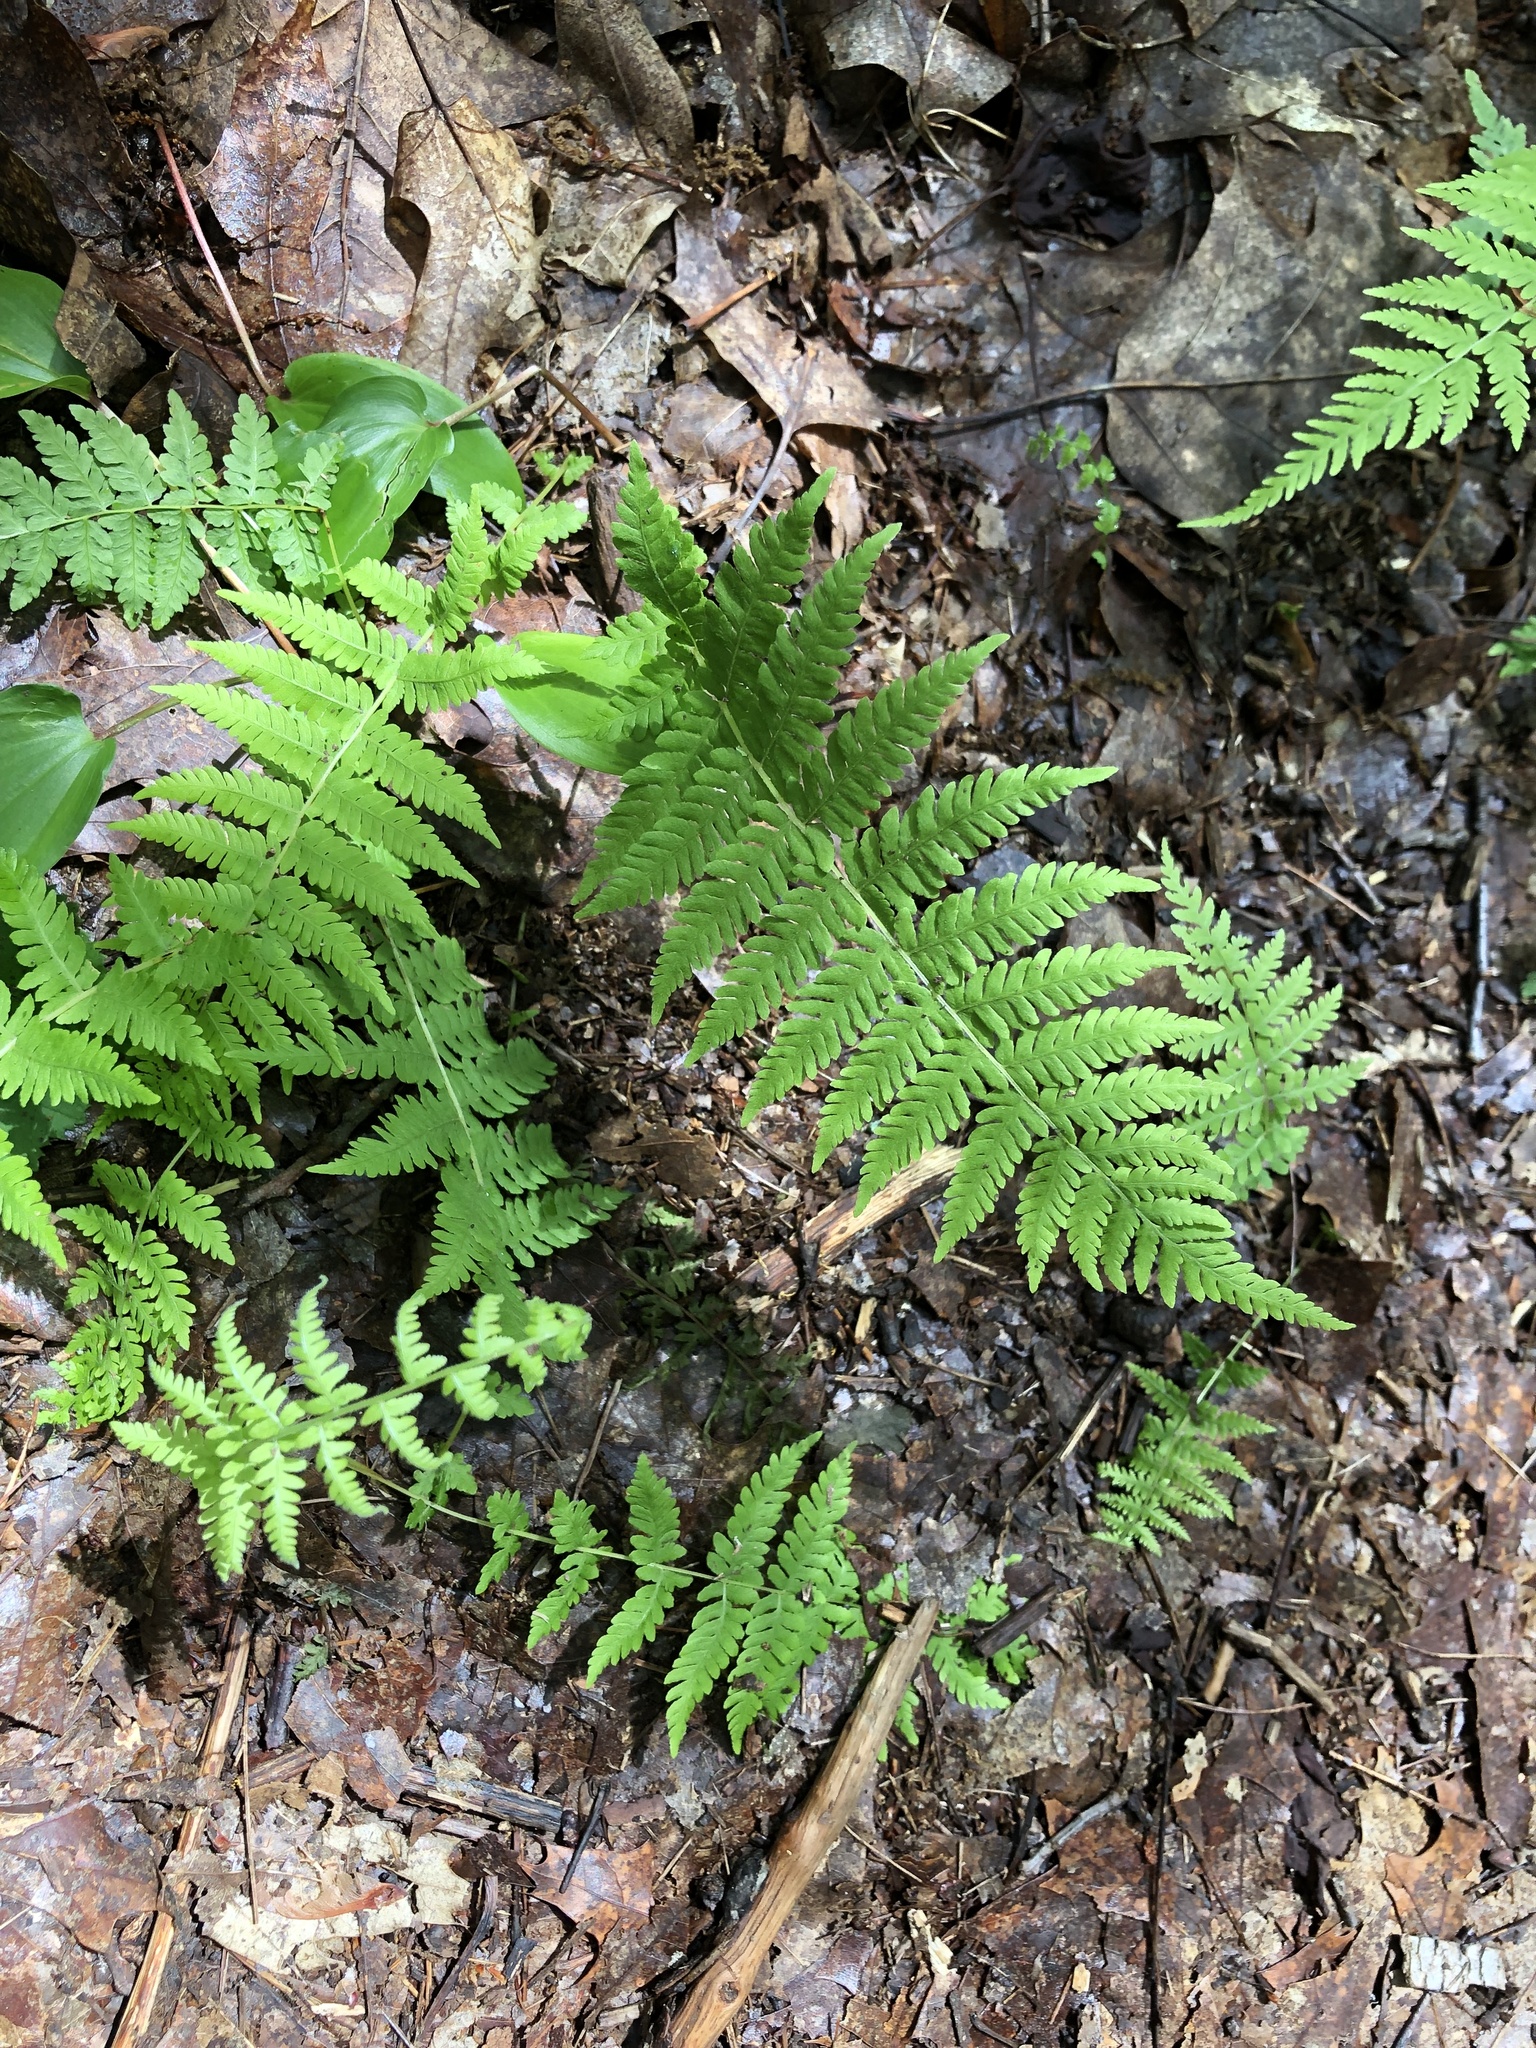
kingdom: Plantae
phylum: Tracheophyta
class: Polypodiopsida
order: Polypodiales
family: Thelypteridaceae
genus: Amauropelta
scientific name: Amauropelta noveboracensis
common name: New york fern
